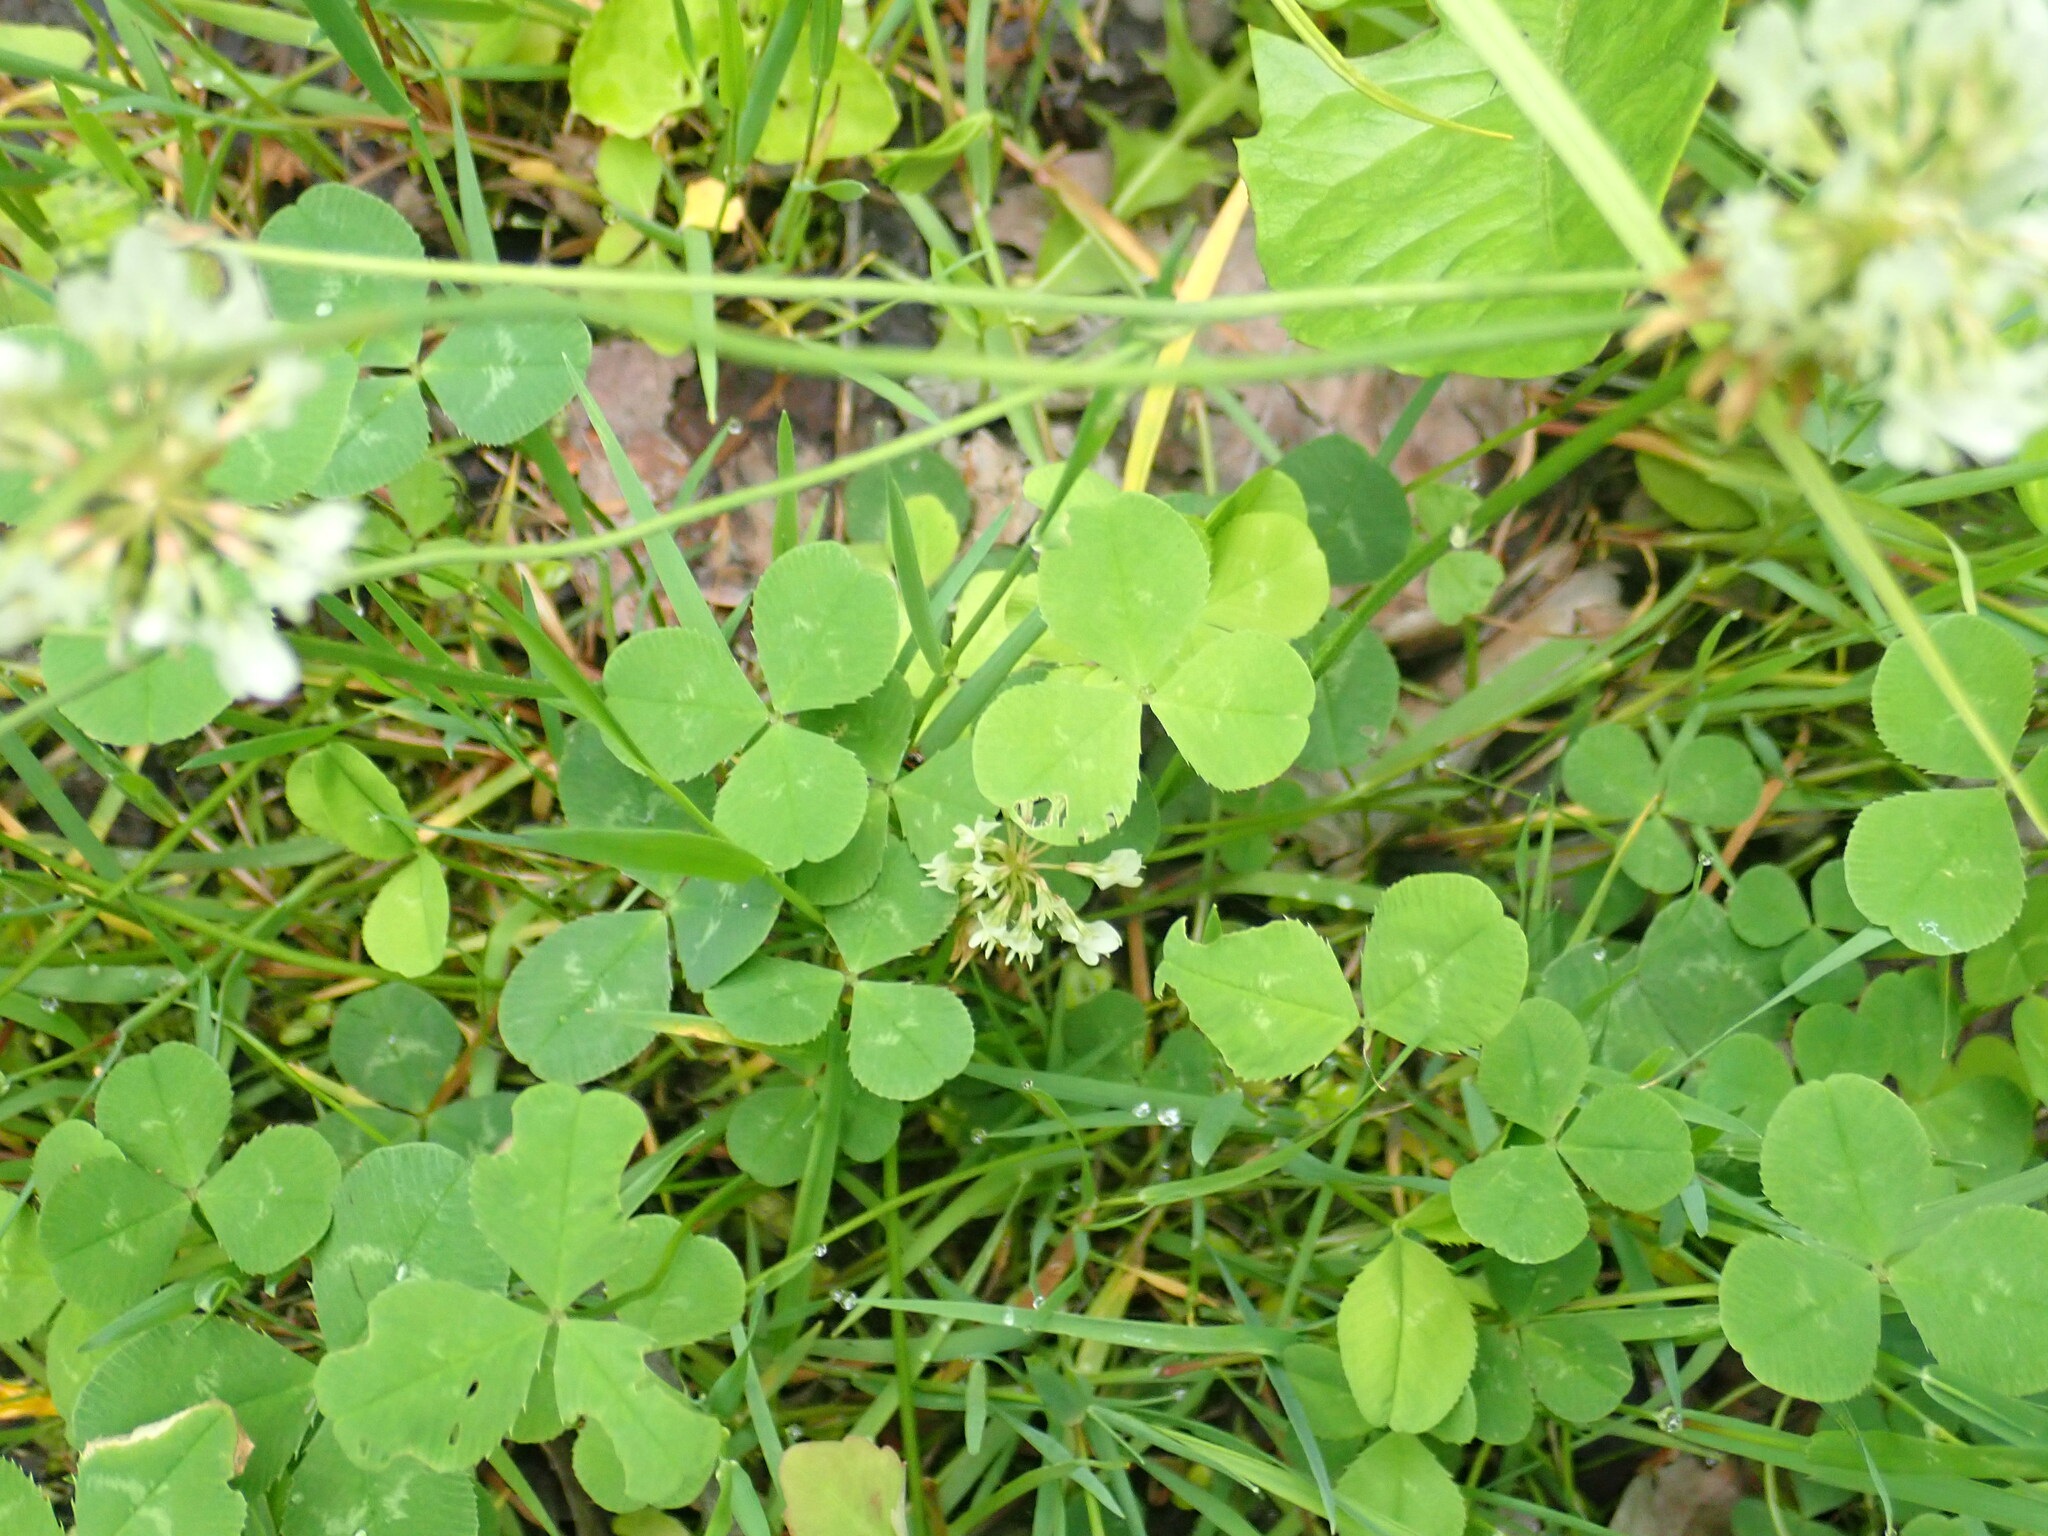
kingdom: Plantae
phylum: Tracheophyta
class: Magnoliopsida
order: Fabales
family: Fabaceae
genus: Trifolium
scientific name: Trifolium repens
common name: White clover
